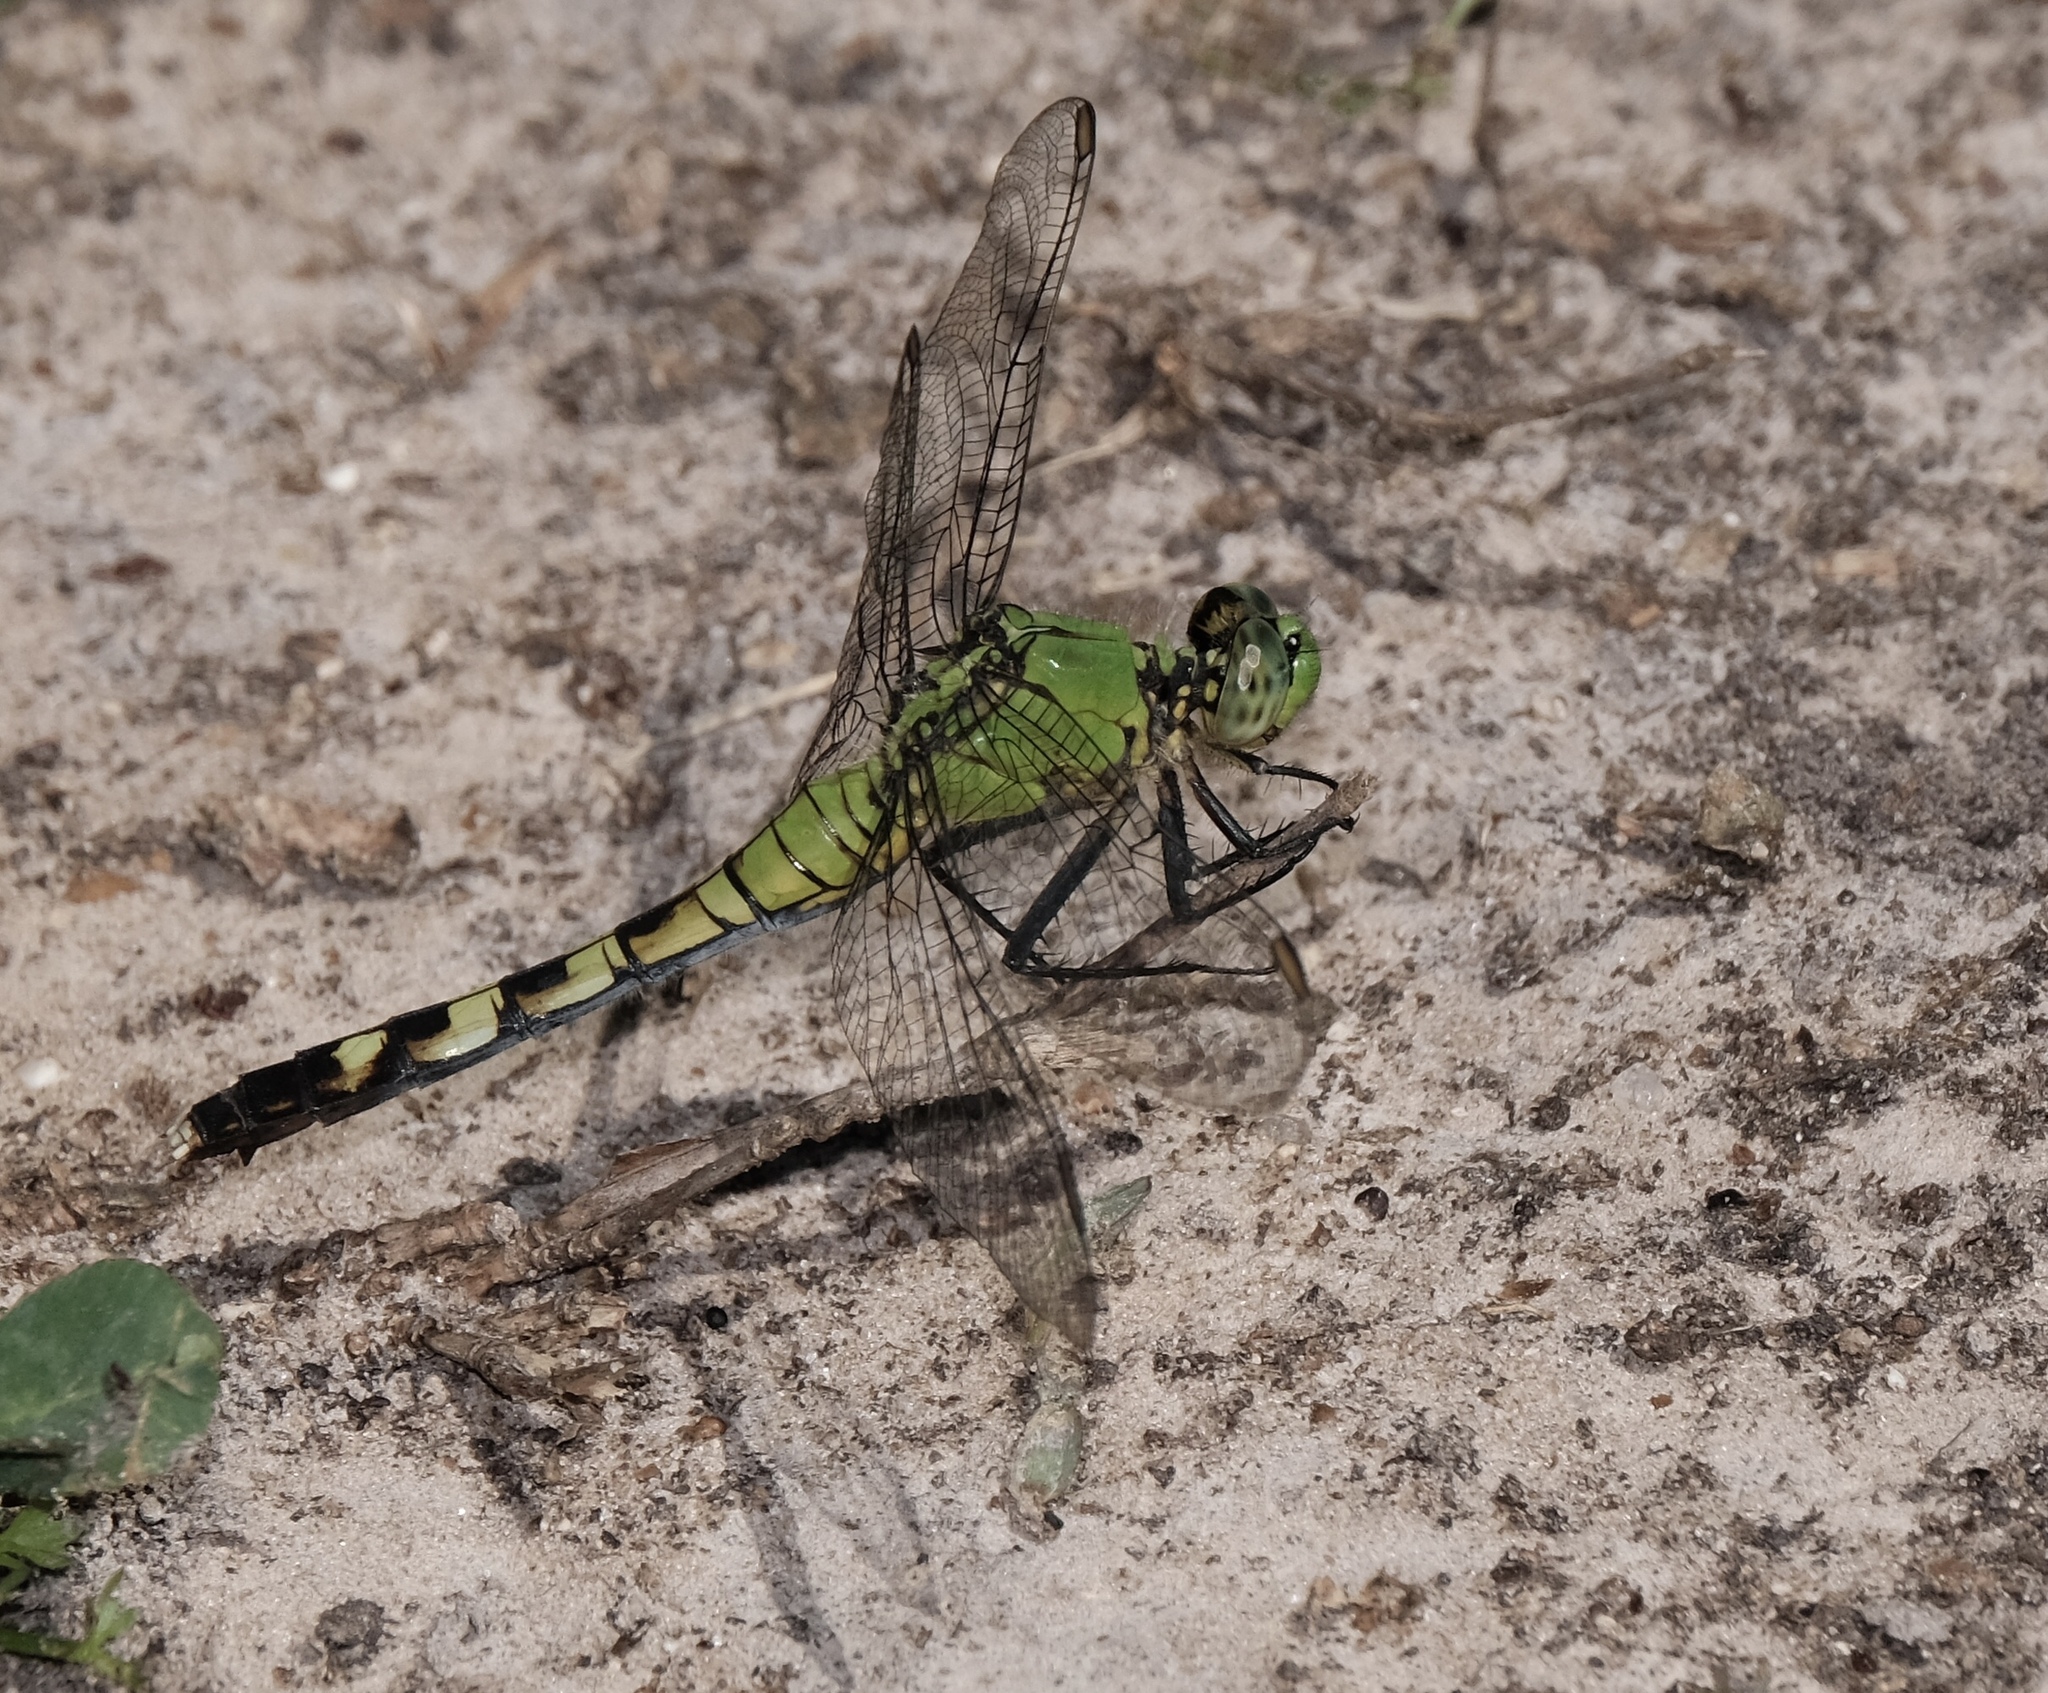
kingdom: Animalia
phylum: Arthropoda
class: Insecta
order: Odonata
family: Libellulidae
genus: Erythemis
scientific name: Erythemis simplicicollis
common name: Eastern pondhawk
